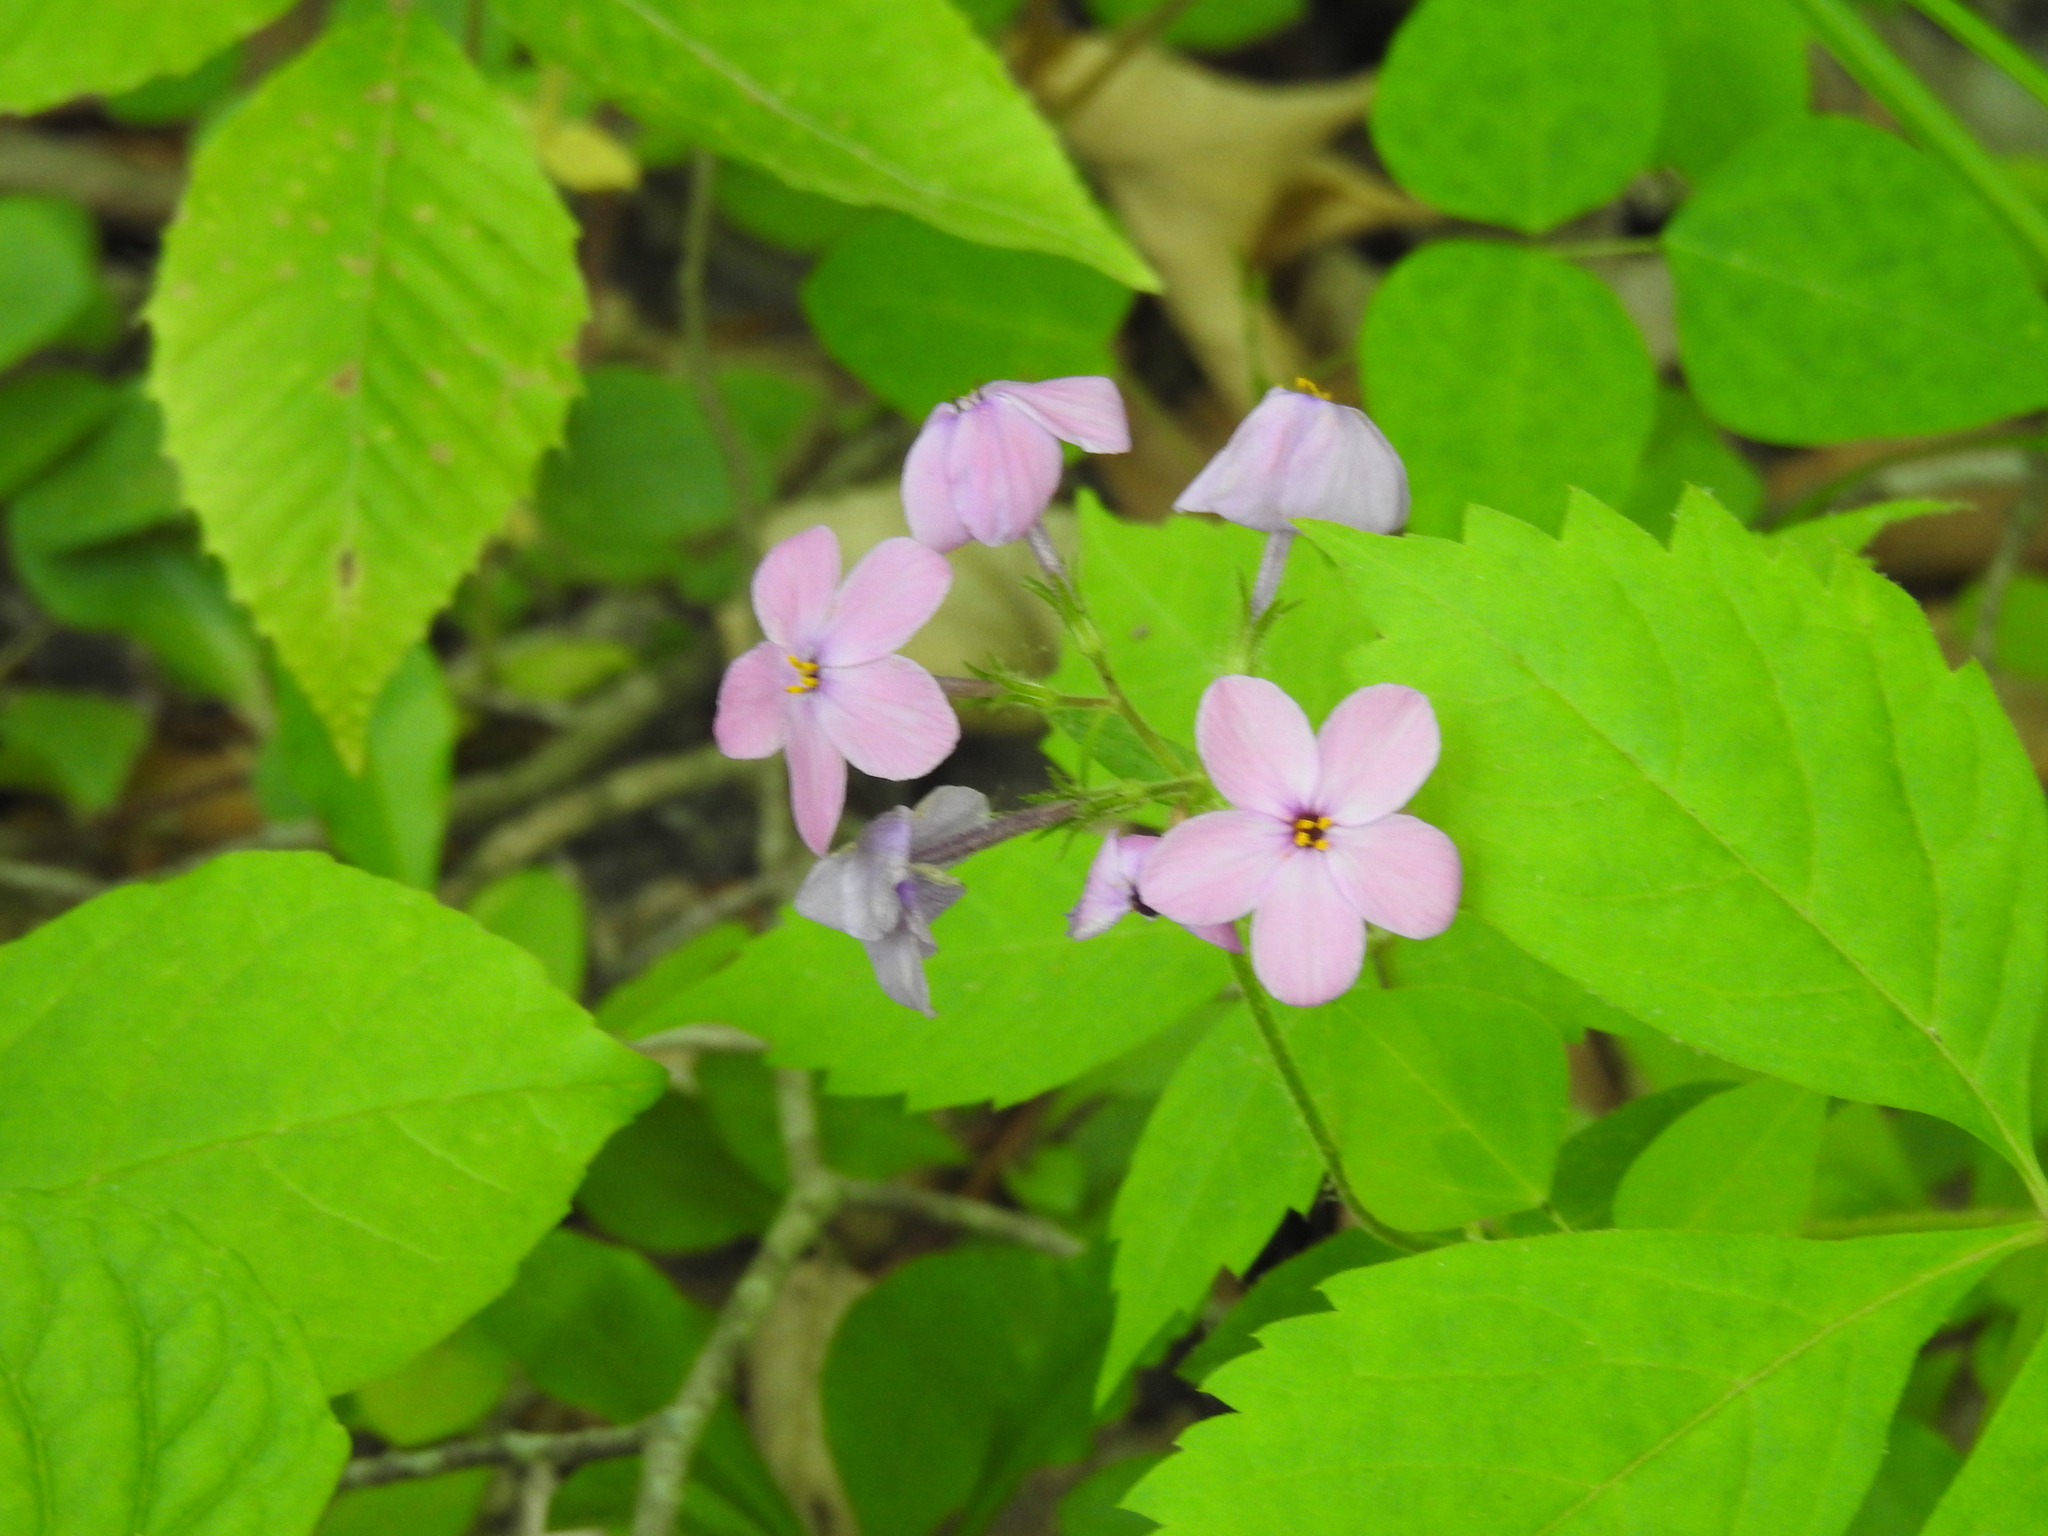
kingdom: Plantae
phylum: Tracheophyta
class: Magnoliopsida
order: Ericales
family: Polemoniaceae
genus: Phlox
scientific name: Phlox stolonifera
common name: Creeping phlox
